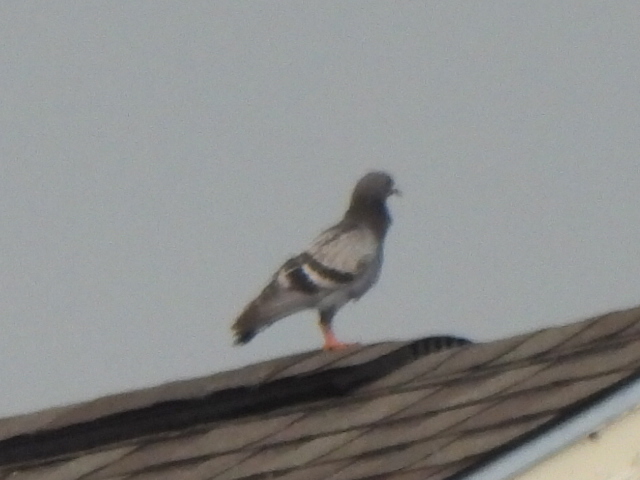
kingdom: Animalia
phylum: Chordata
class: Aves
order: Columbiformes
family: Columbidae
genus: Columba
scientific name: Columba livia
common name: Rock pigeon
